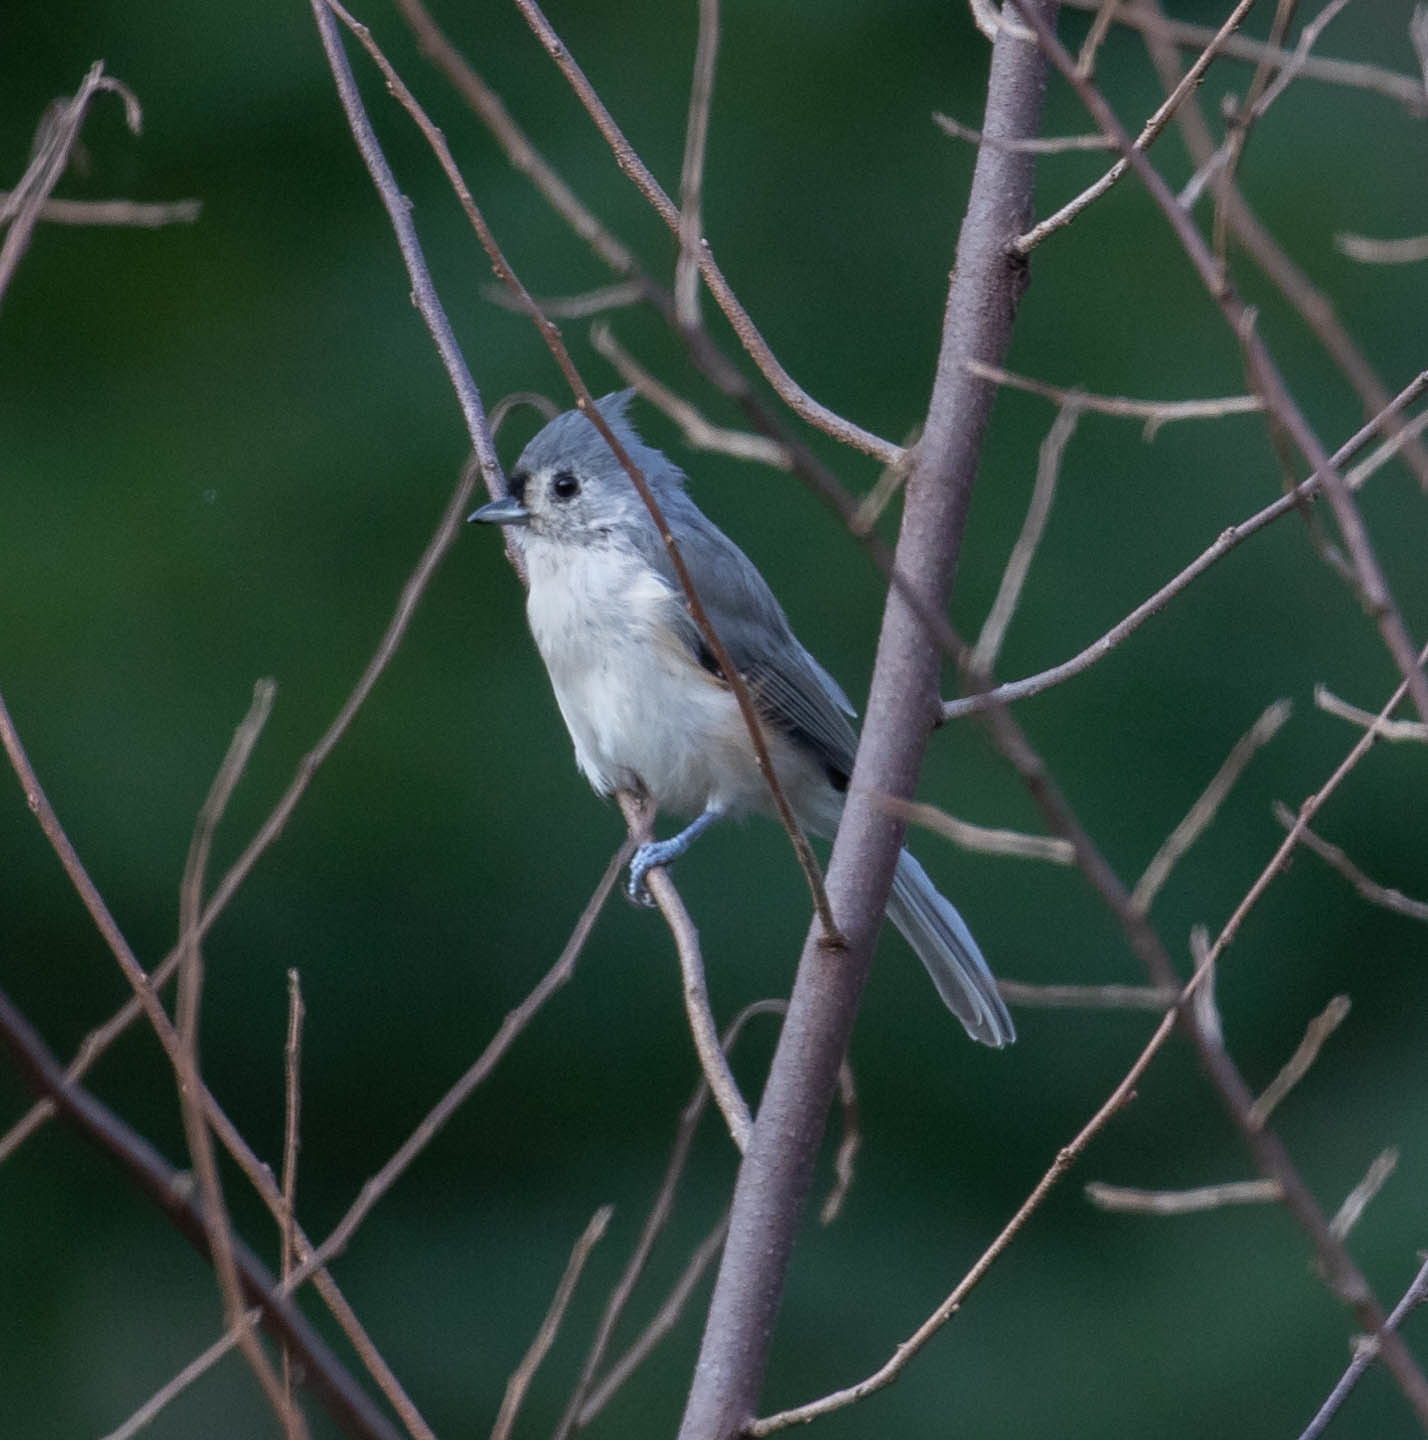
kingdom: Animalia
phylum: Chordata
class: Aves
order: Passeriformes
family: Paridae
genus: Baeolophus
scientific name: Baeolophus bicolor
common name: Tufted titmouse
